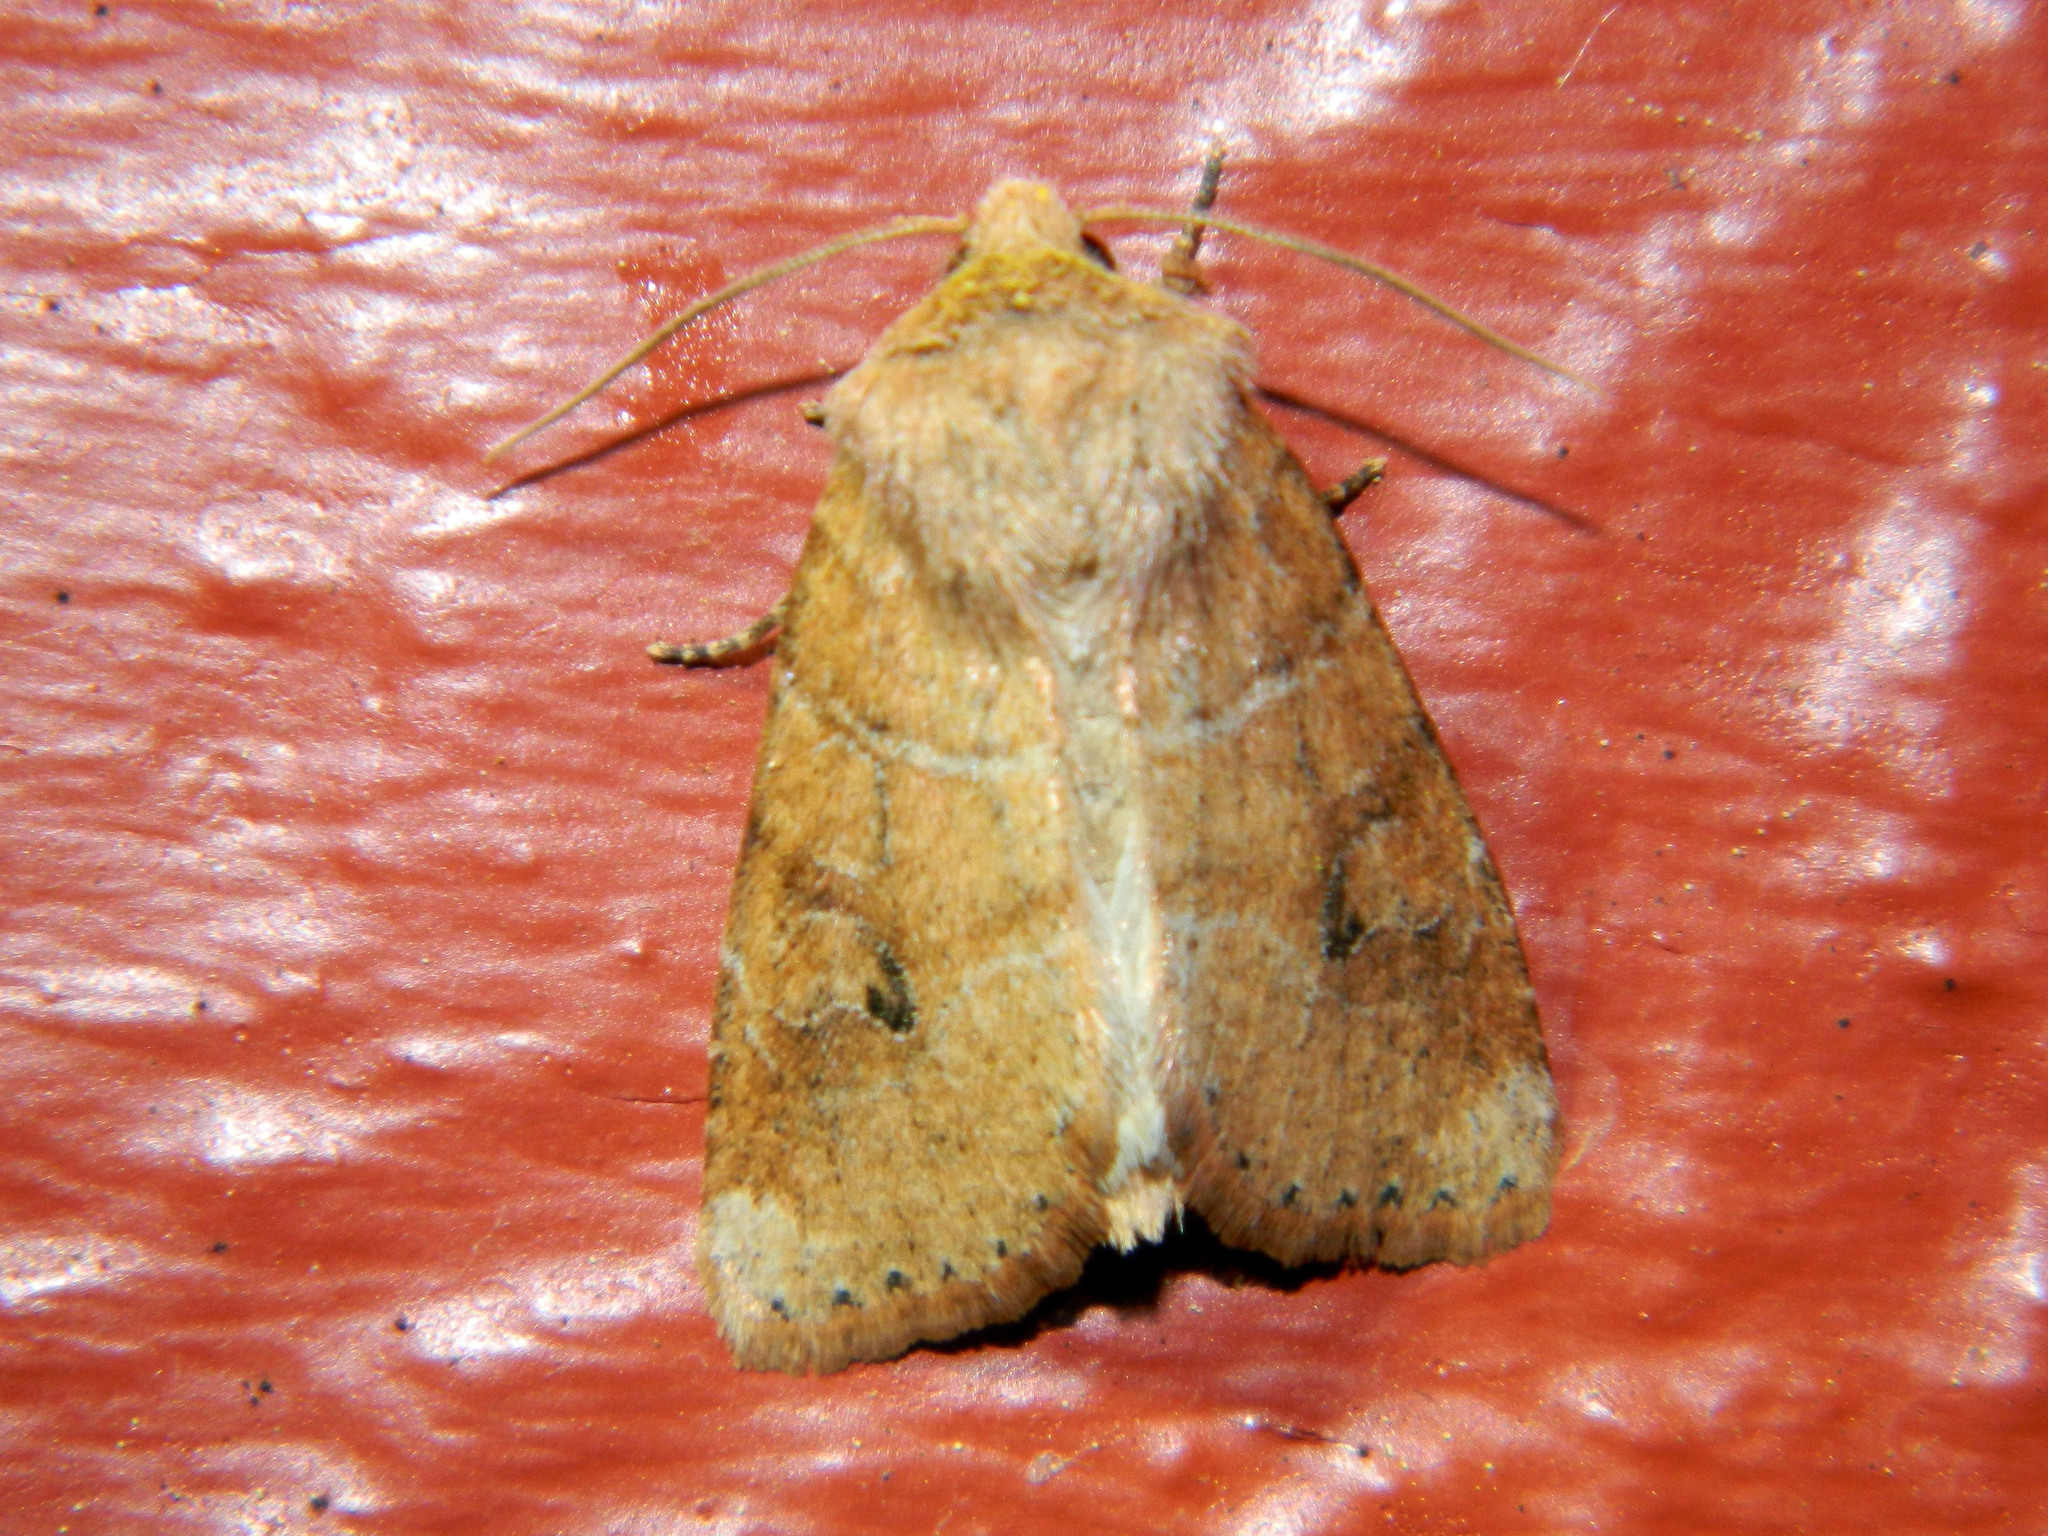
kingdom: Animalia
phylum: Arthropoda
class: Insecta
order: Lepidoptera
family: Noctuidae
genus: Crocigrapha
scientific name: Crocigrapha normani
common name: Norman's quaker
